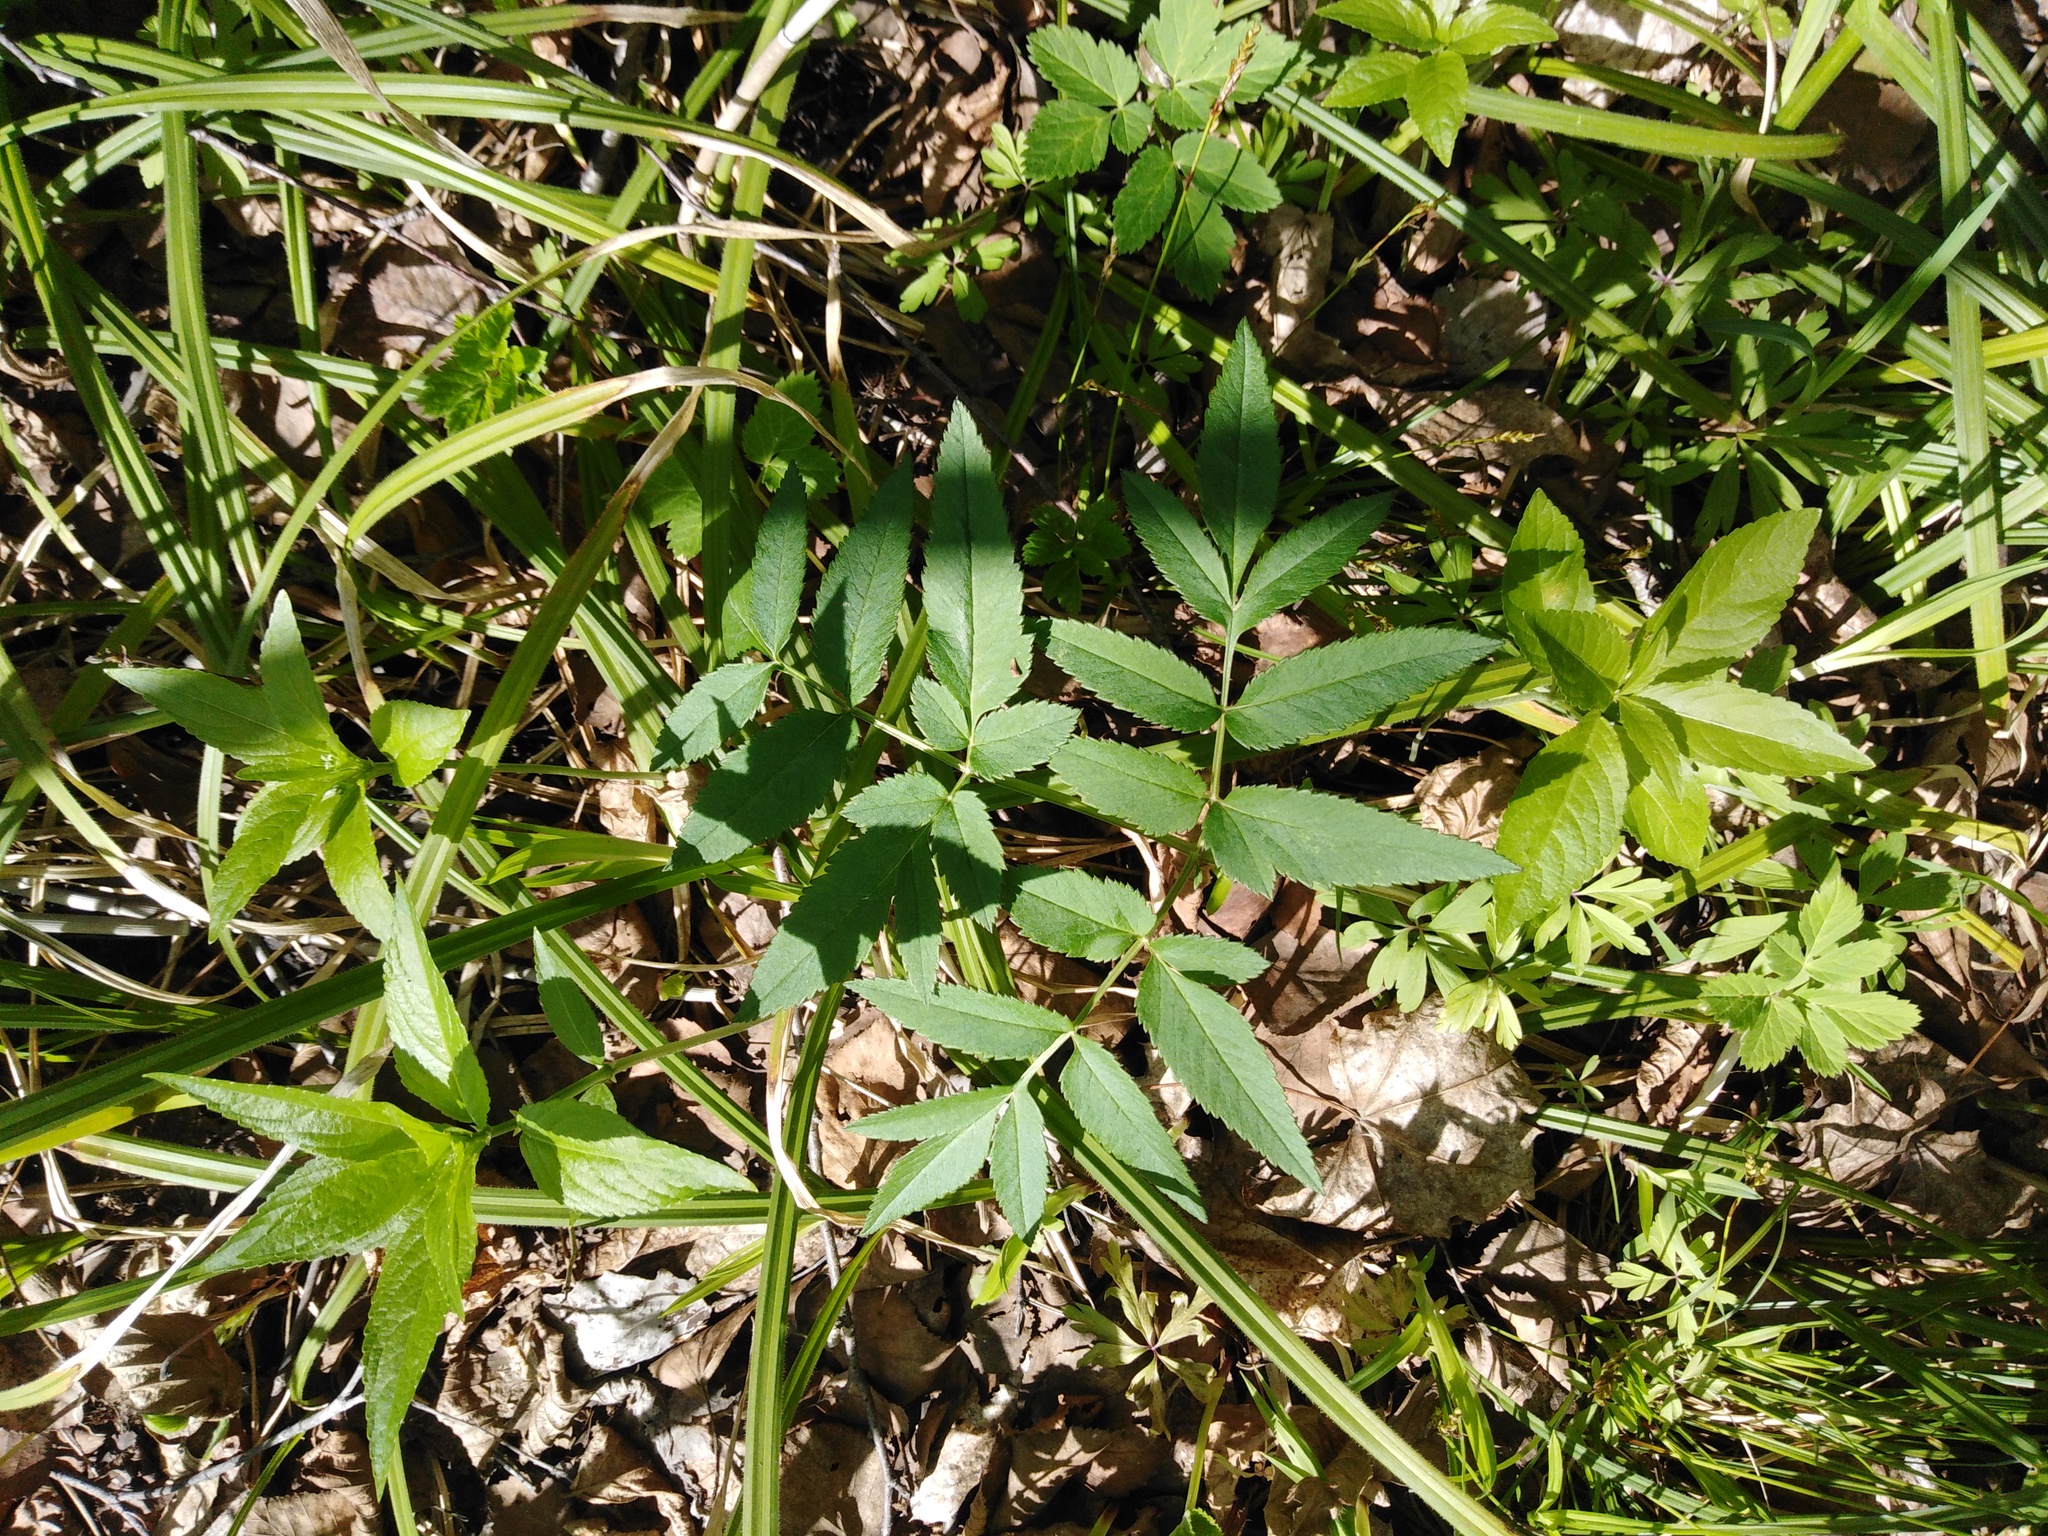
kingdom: Plantae
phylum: Tracheophyta
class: Magnoliopsida
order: Apiales
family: Apiaceae
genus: Angelica
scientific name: Angelica sylvestris
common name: Wild angelica
